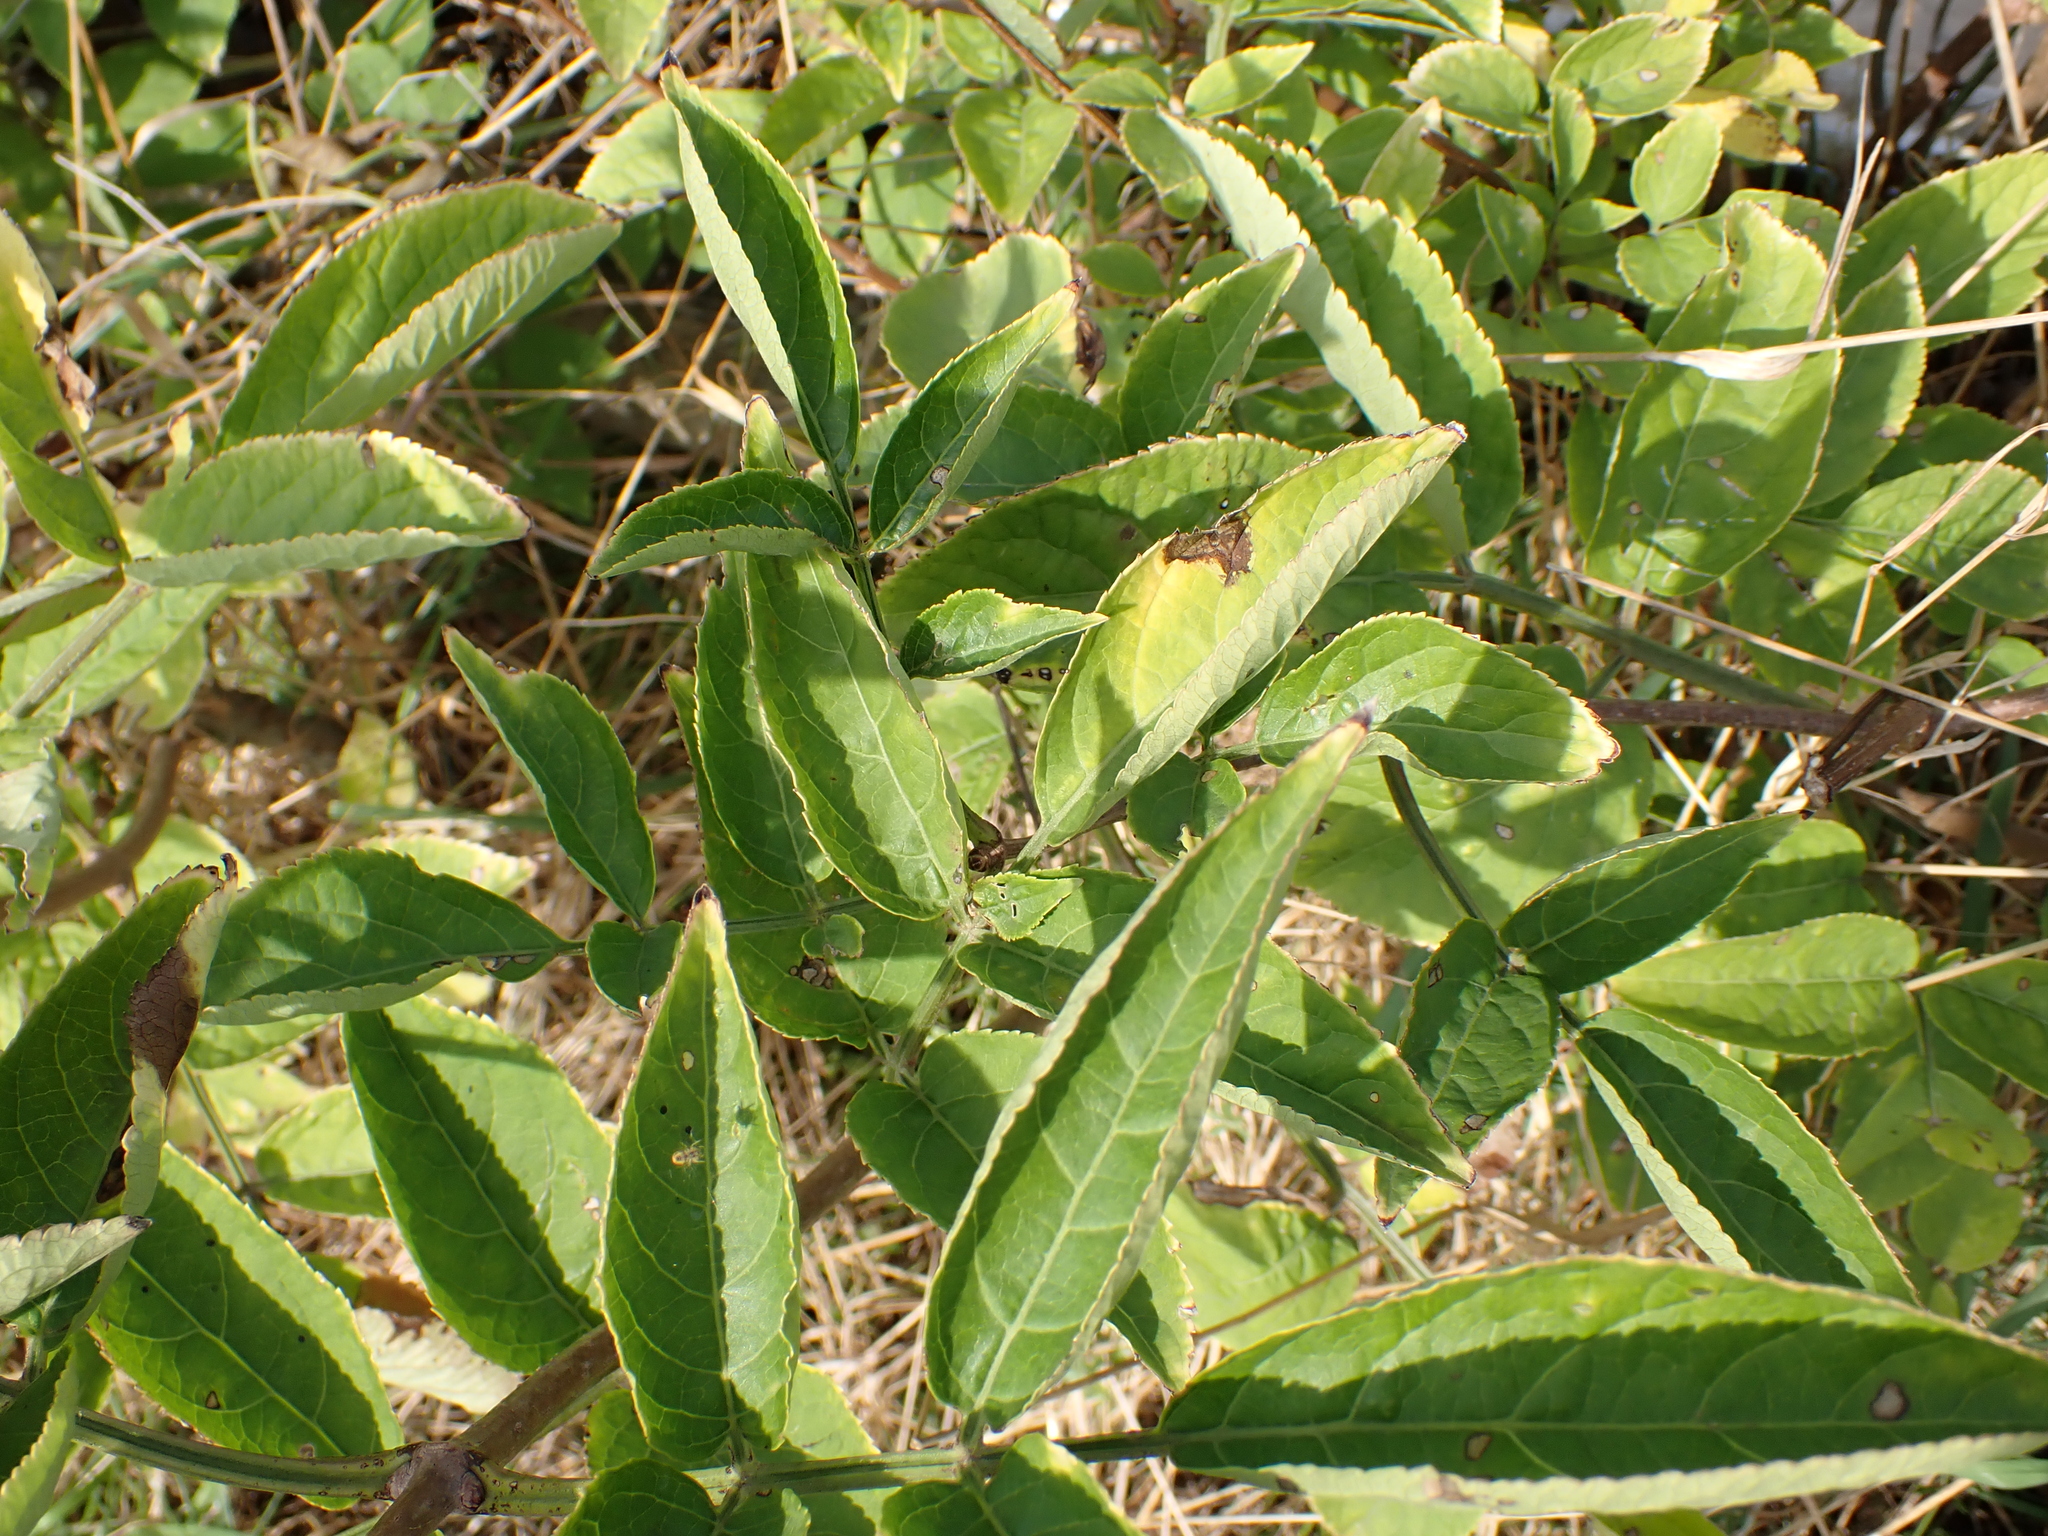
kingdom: Plantae
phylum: Tracheophyta
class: Magnoliopsida
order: Dipsacales
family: Viburnaceae
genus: Sambucus
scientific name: Sambucus nigra
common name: Elder
